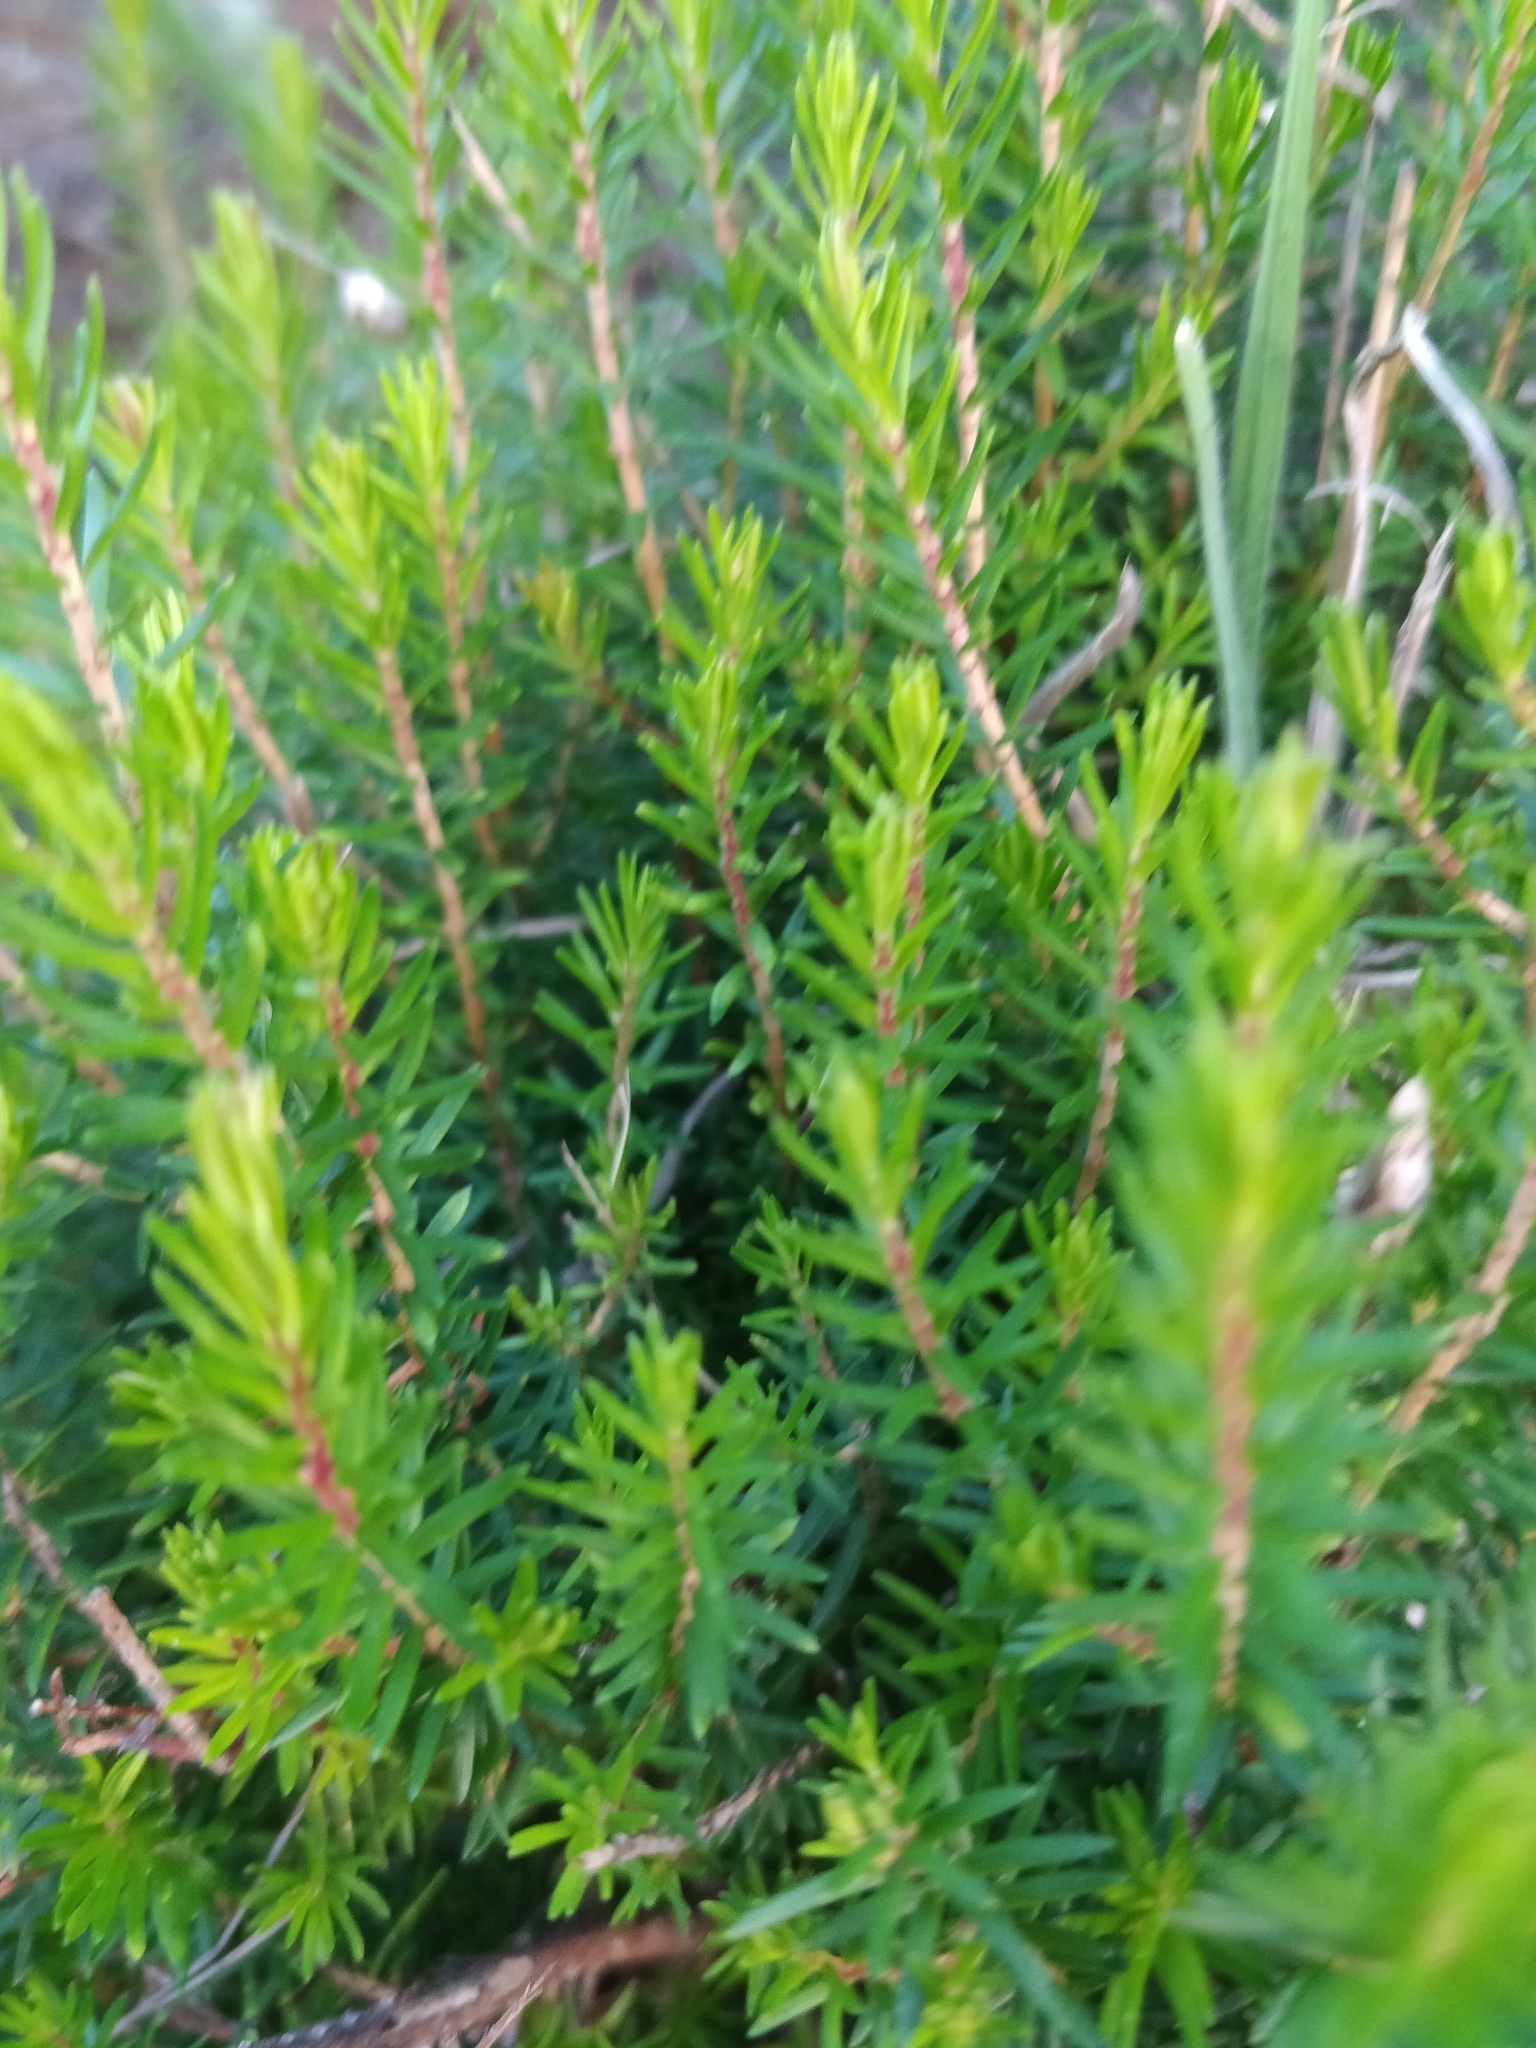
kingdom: Plantae
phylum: Tracheophyta
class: Magnoliopsida
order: Ericales
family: Ericaceae
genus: Erica
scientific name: Erica platycodon
